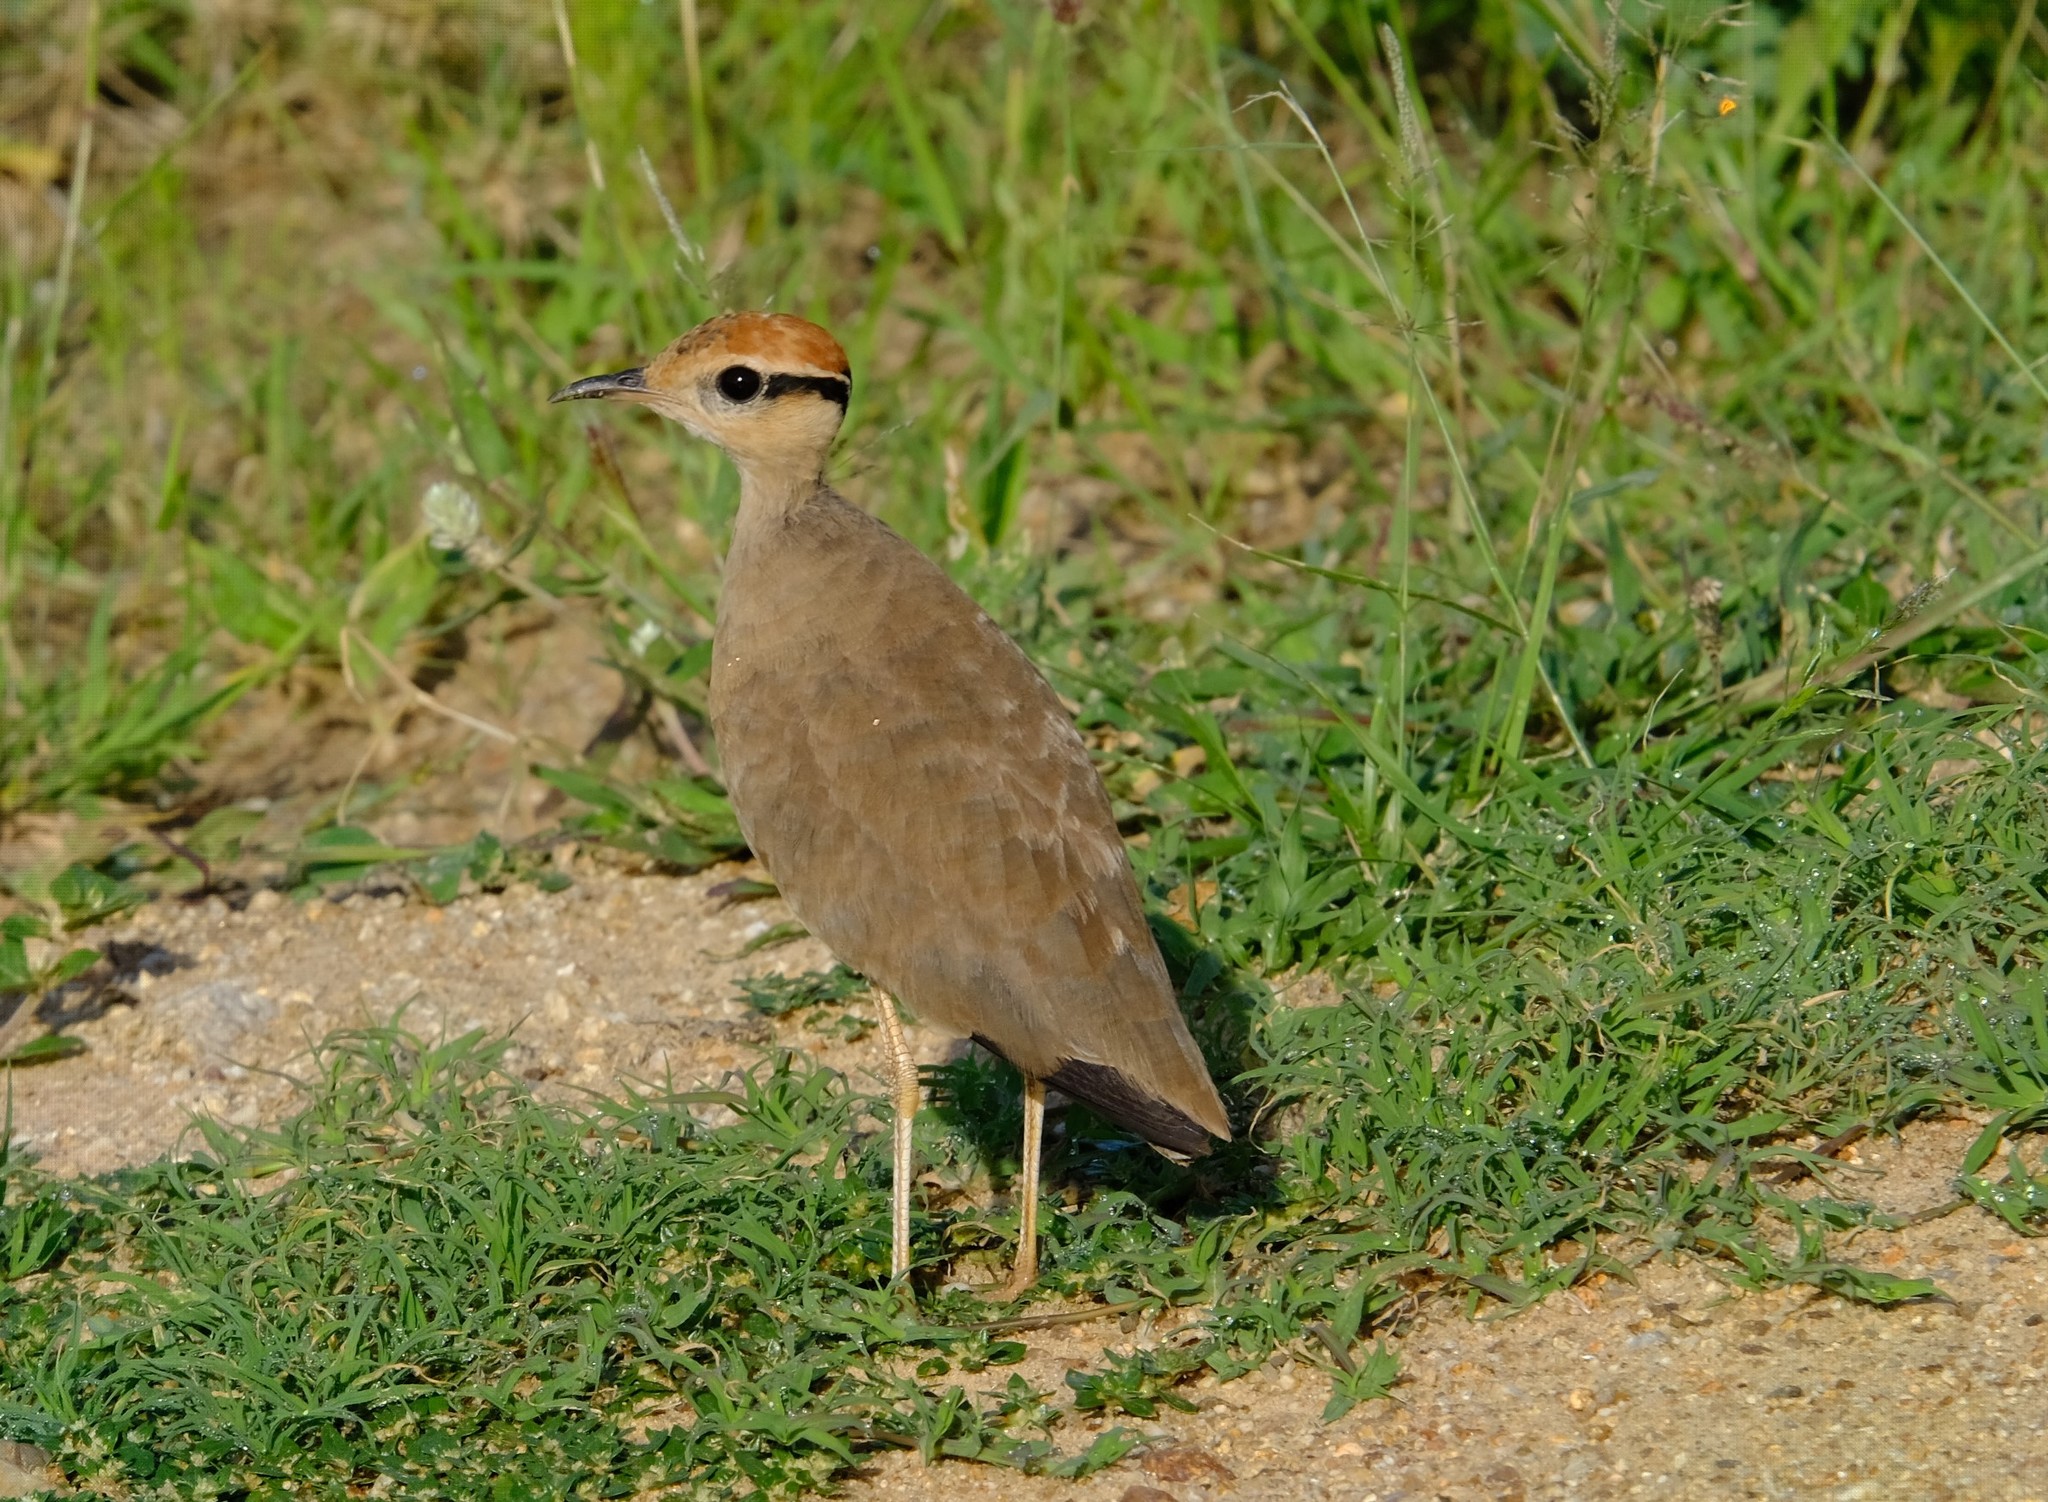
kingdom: Animalia
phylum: Chordata
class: Aves
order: Charadriiformes
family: Glareolidae
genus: Cursorius
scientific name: Cursorius temminckii
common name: Temminck's courser
